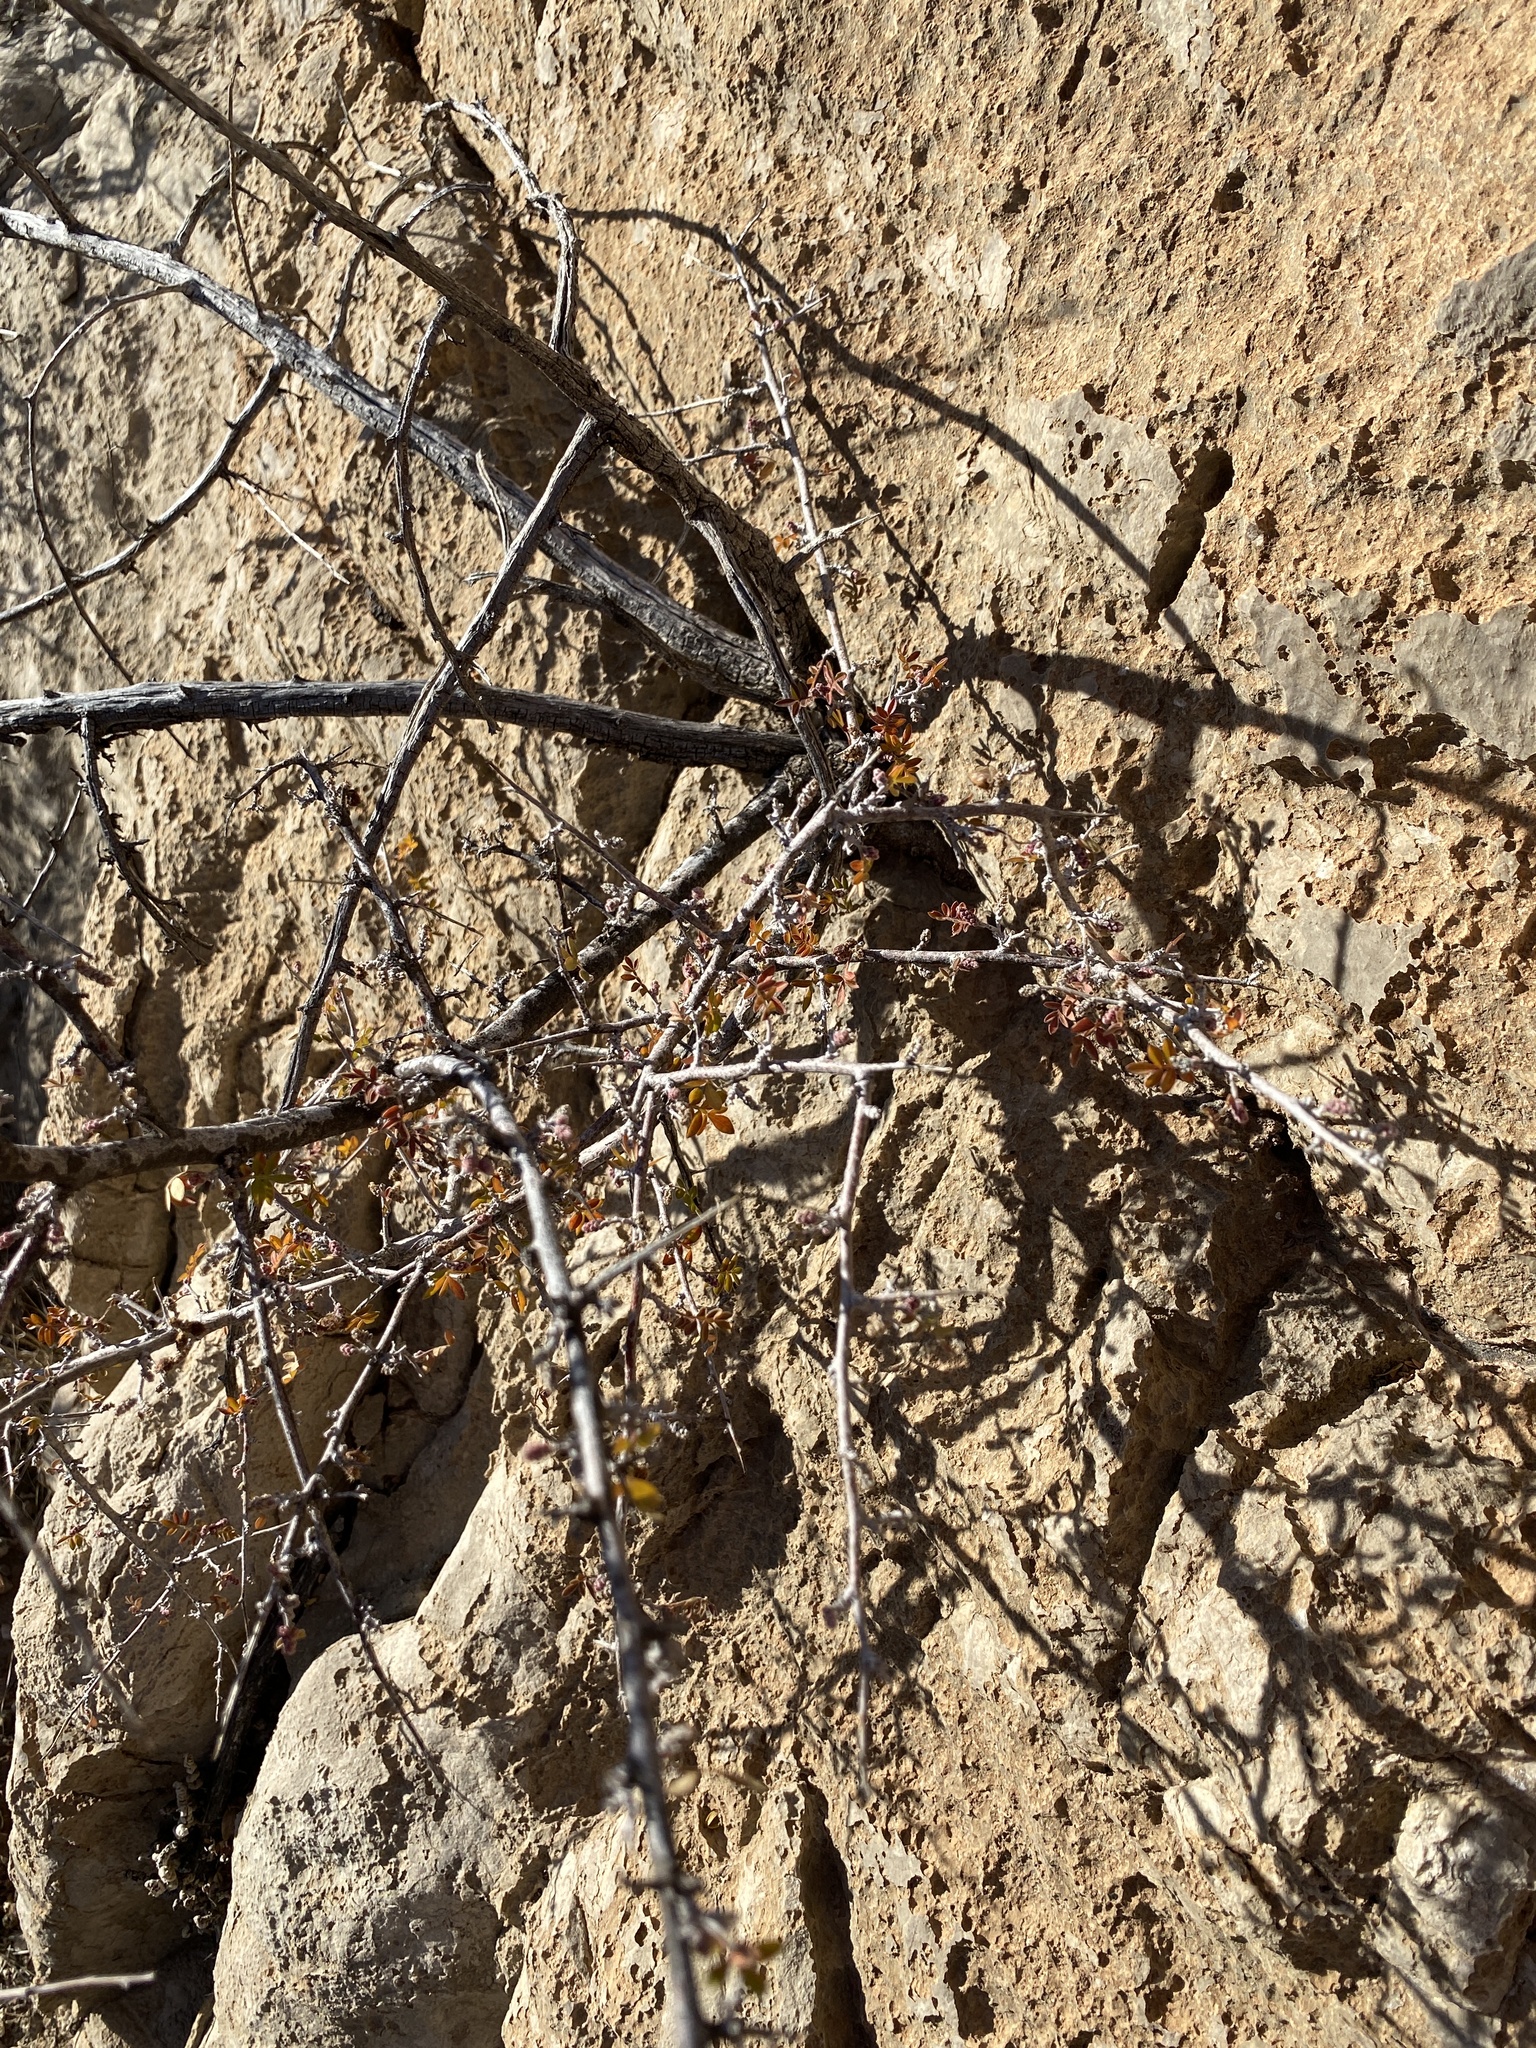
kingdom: Plantae
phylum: Tracheophyta
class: Magnoliopsida
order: Sapindales
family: Anacardiaceae
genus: Rhus
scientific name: Rhus microphylla
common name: Desert sumac
